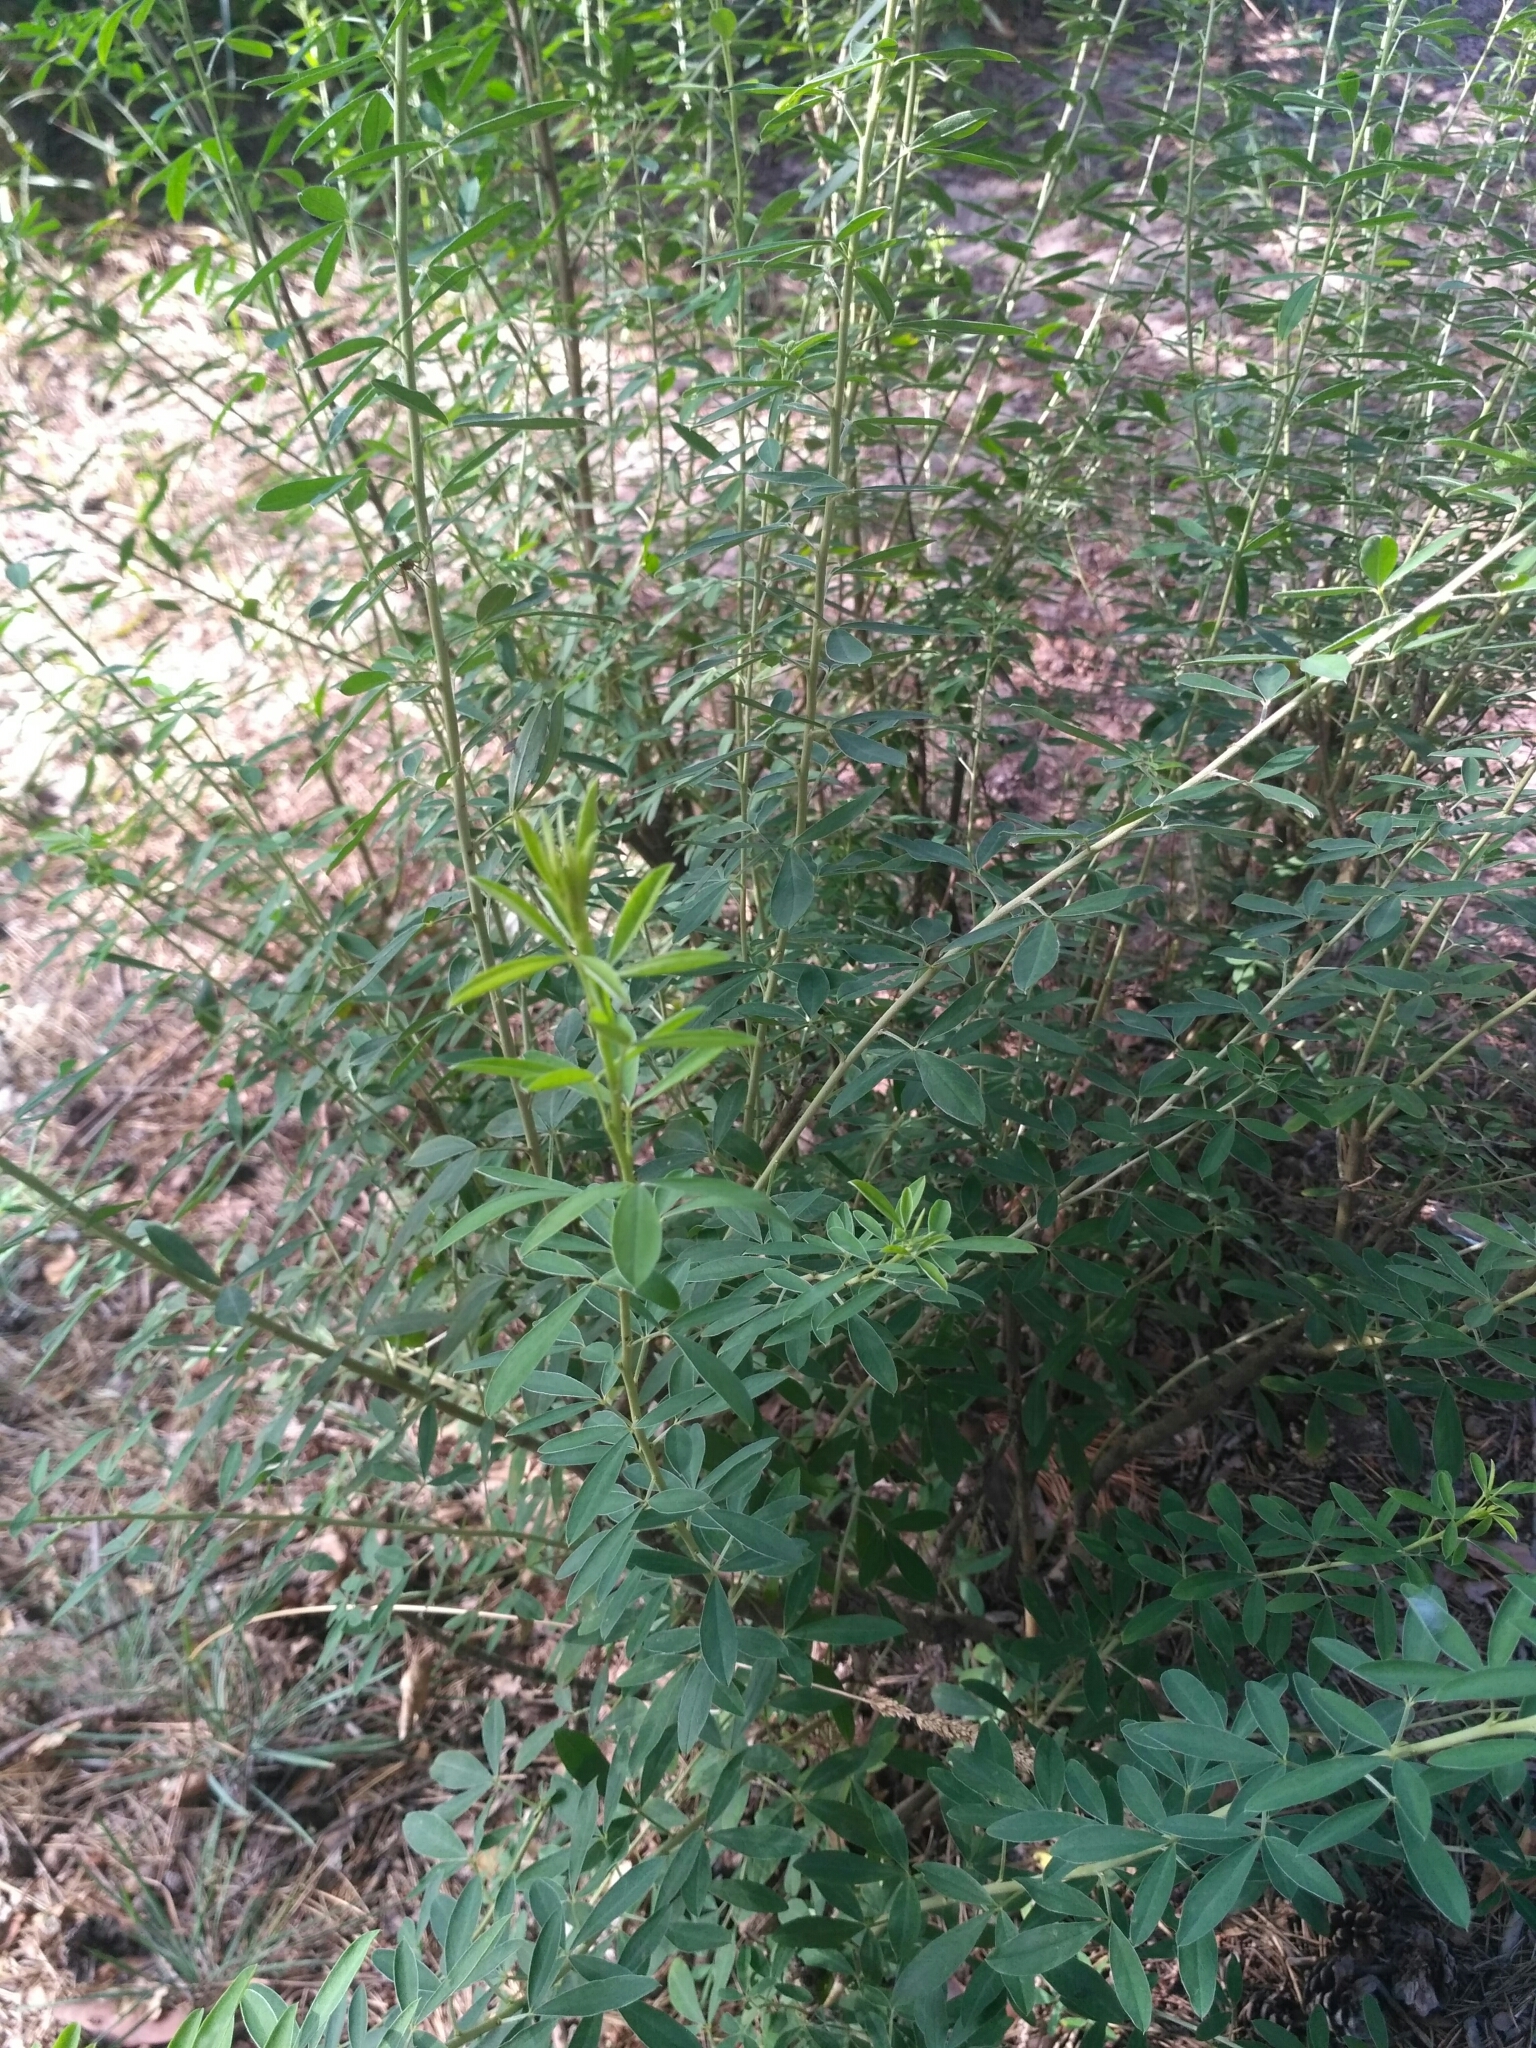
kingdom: Plantae
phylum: Tracheophyta
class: Magnoliopsida
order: Fabales
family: Fabaceae
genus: Chamaecytisus
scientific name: Chamaecytisus ruthenicus
